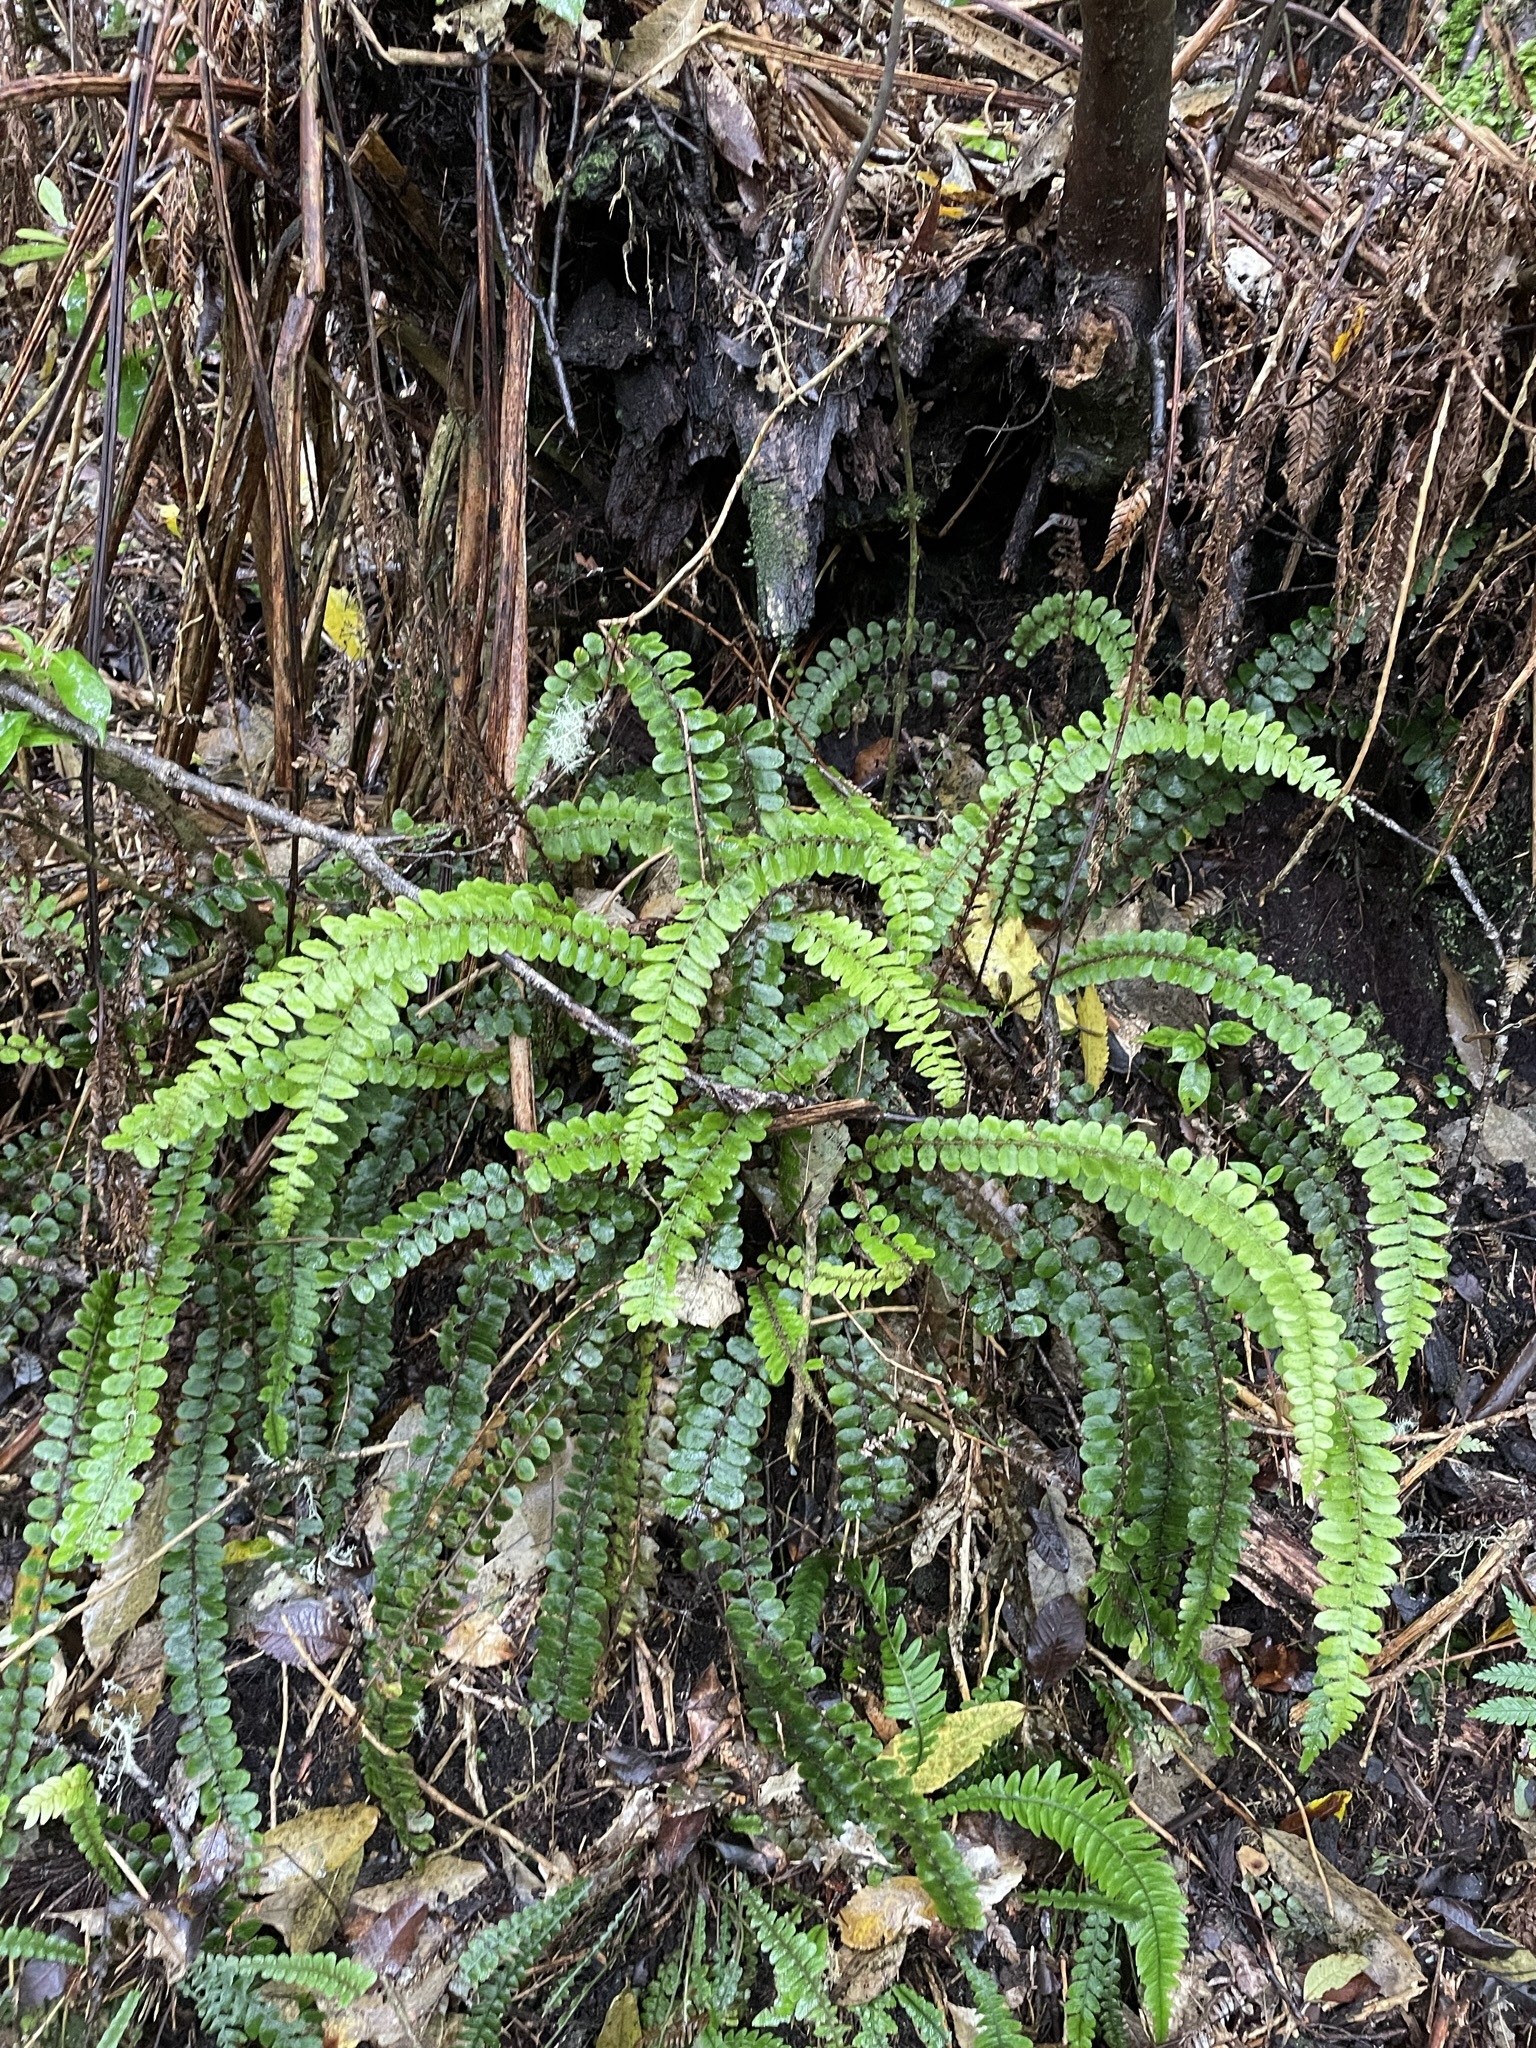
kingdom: Plantae
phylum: Tracheophyta
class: Polypodiopsida
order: Polypodiales
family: Blechnaceae
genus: Cranfillia
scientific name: Cranfillia fluviatilis
